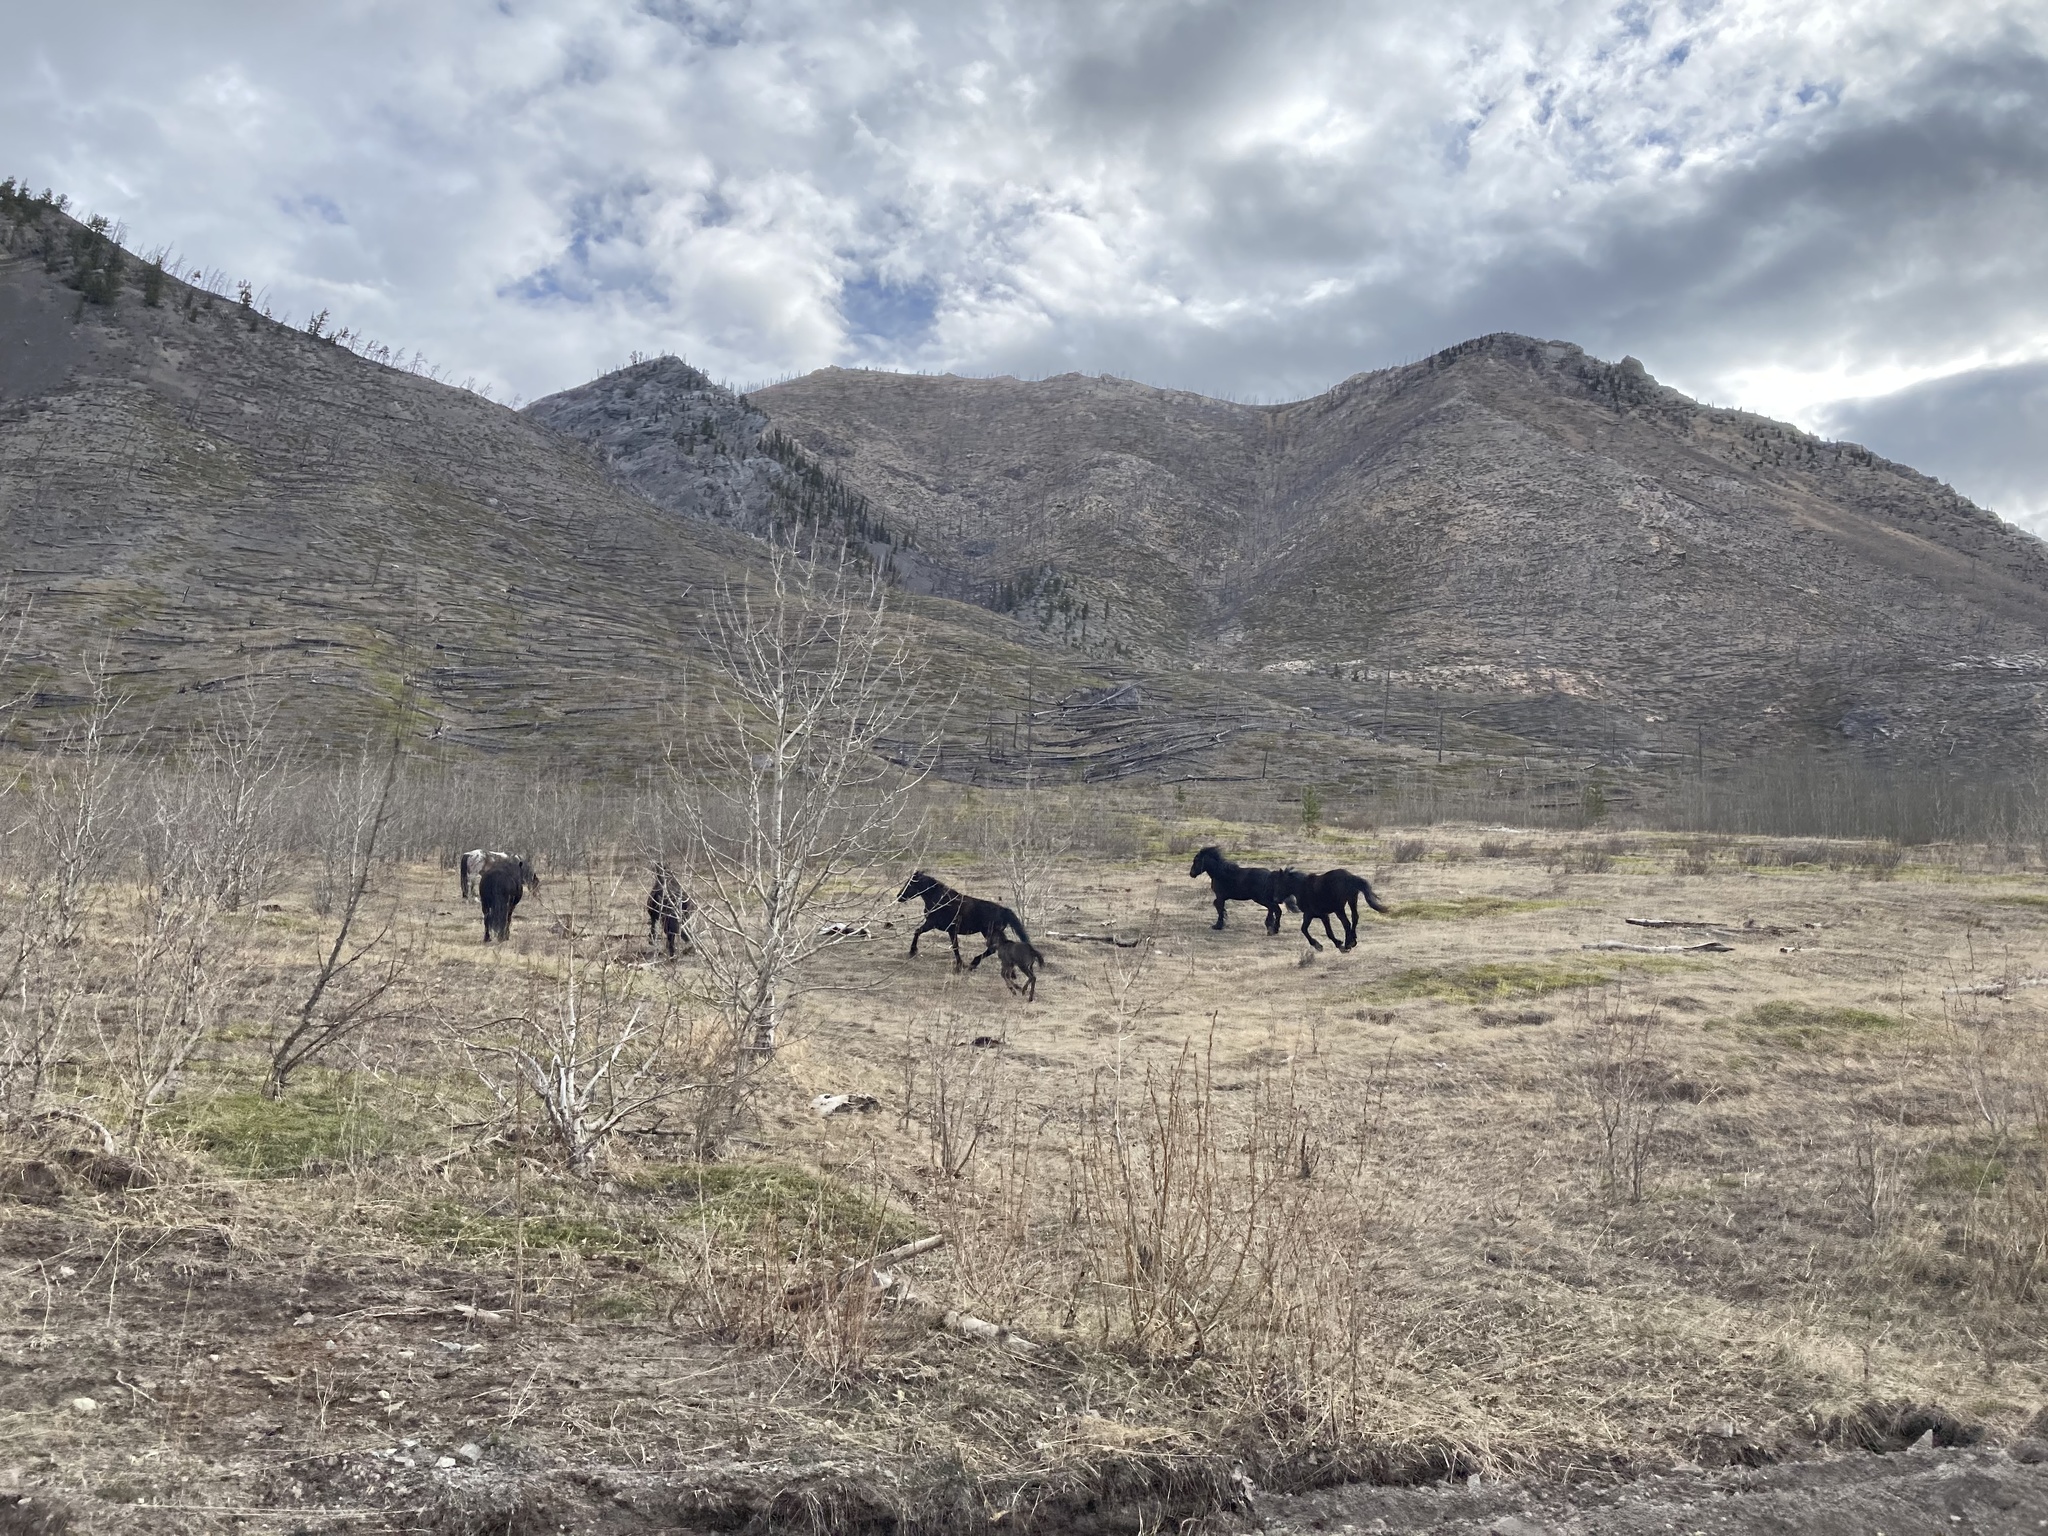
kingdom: Animalia
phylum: Chordata
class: Mammalia
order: Perissodactyla
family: Equidae
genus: Equus
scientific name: Equus caballus
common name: Horse
